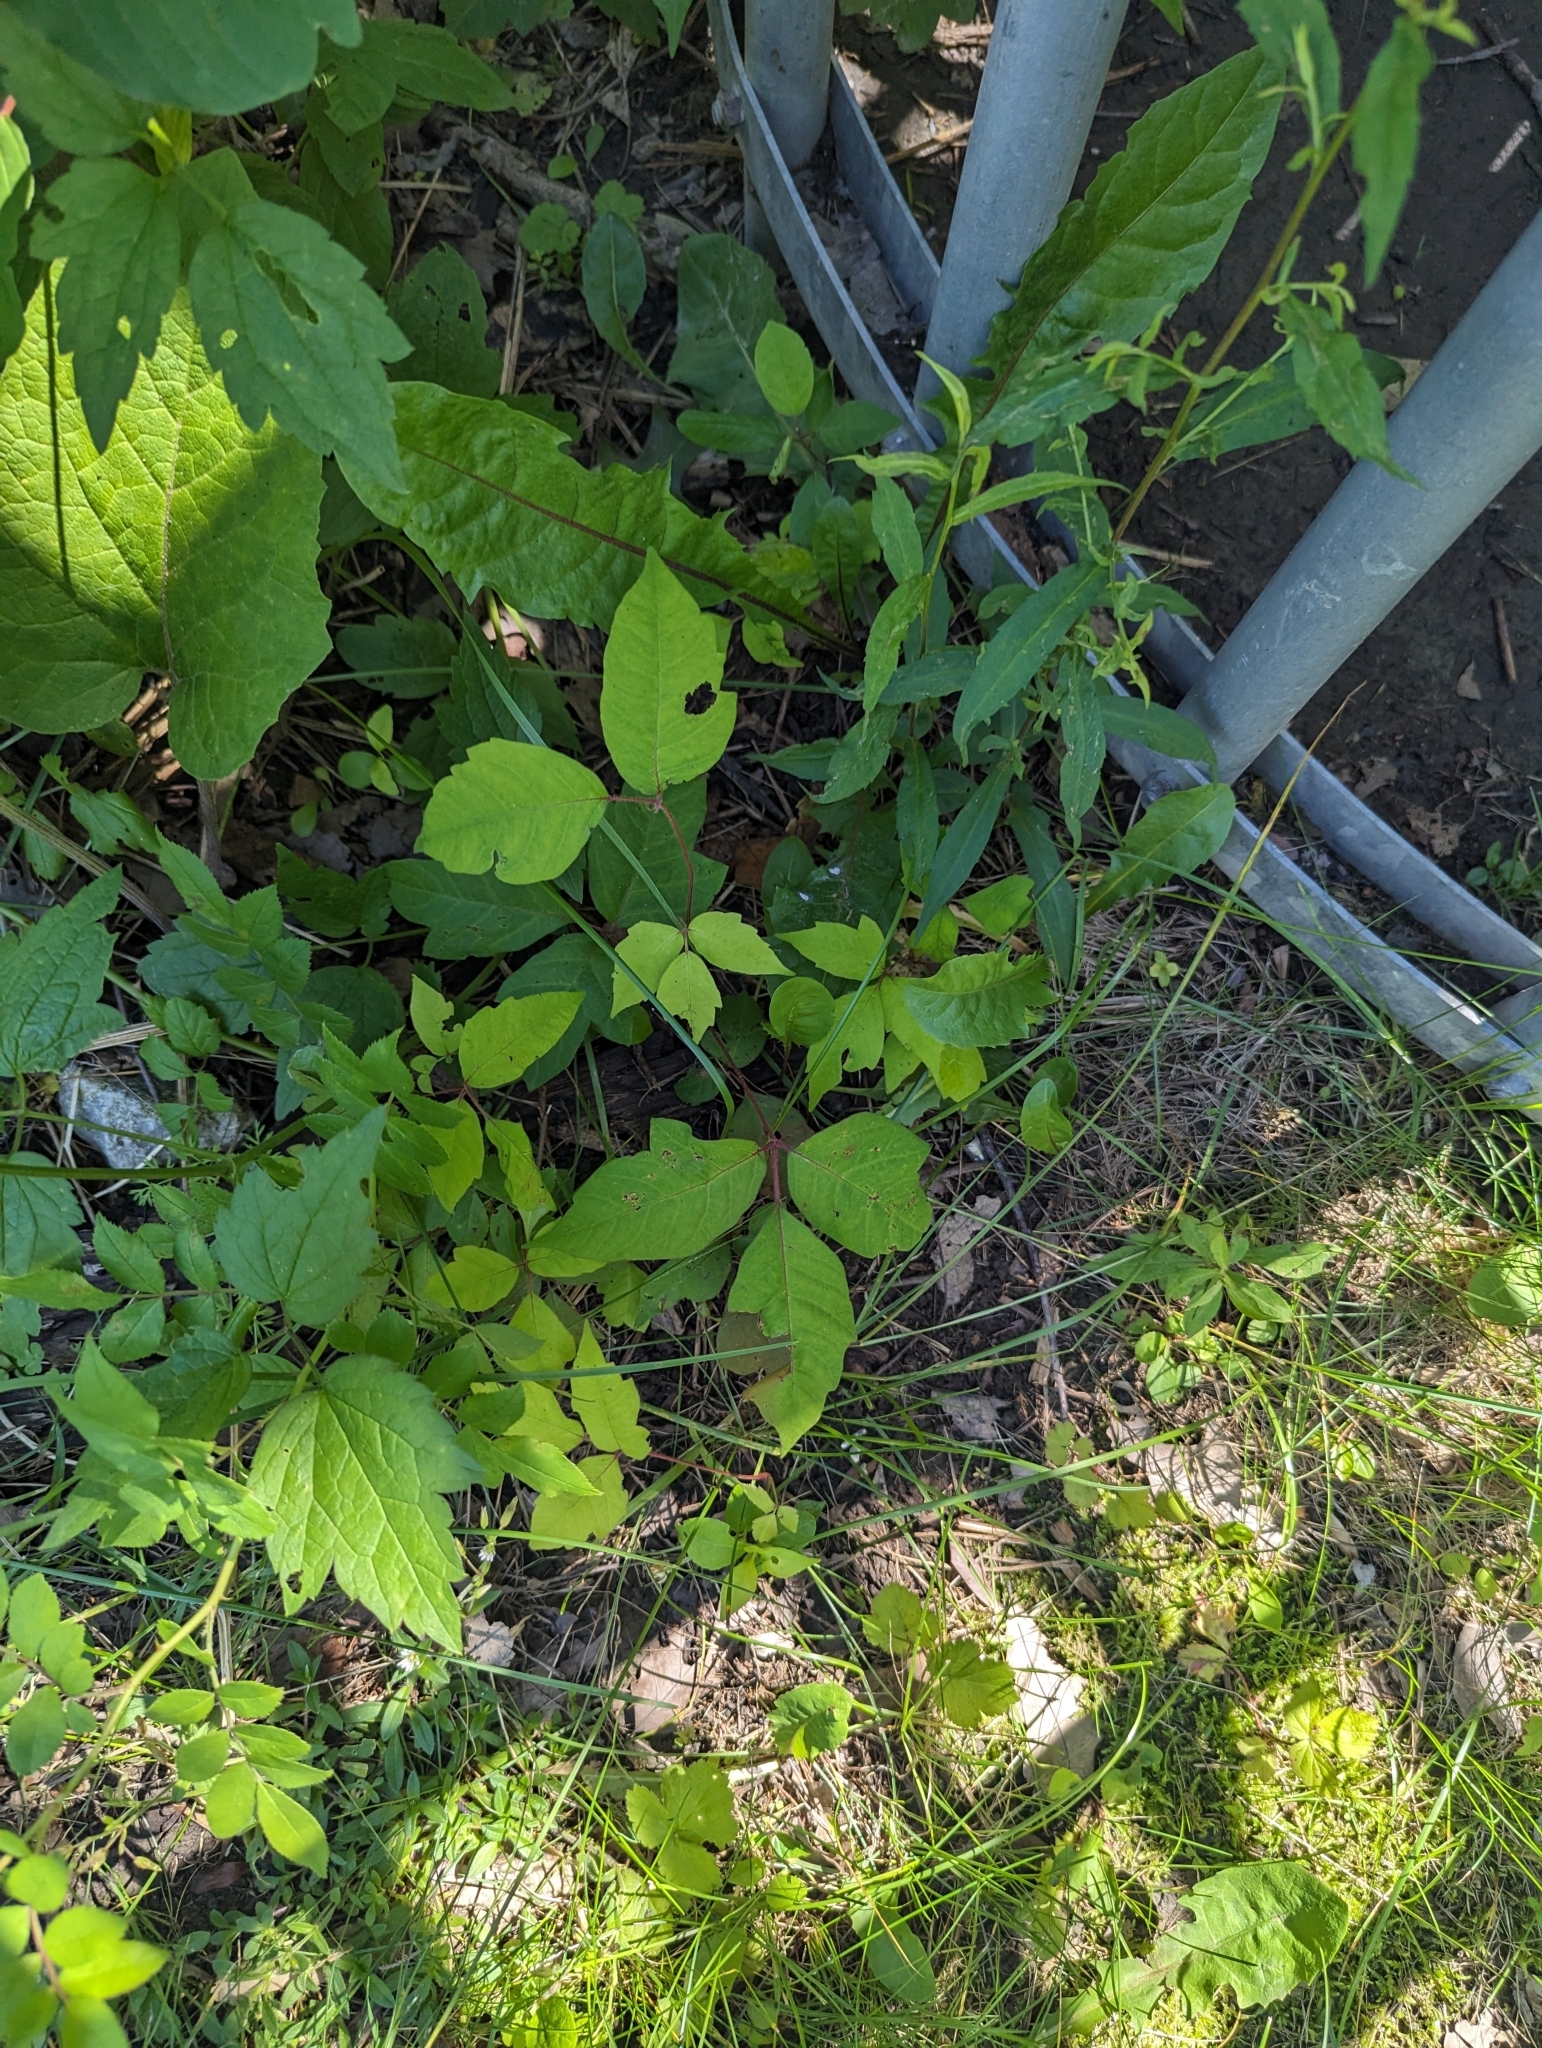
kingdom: Plantae
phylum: Tracheophyta
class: Magnoliopsida
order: Sapindales
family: Anacardiaceae
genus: Toxicodendron
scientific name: Toxicodendron radicans
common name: Poison ivy
